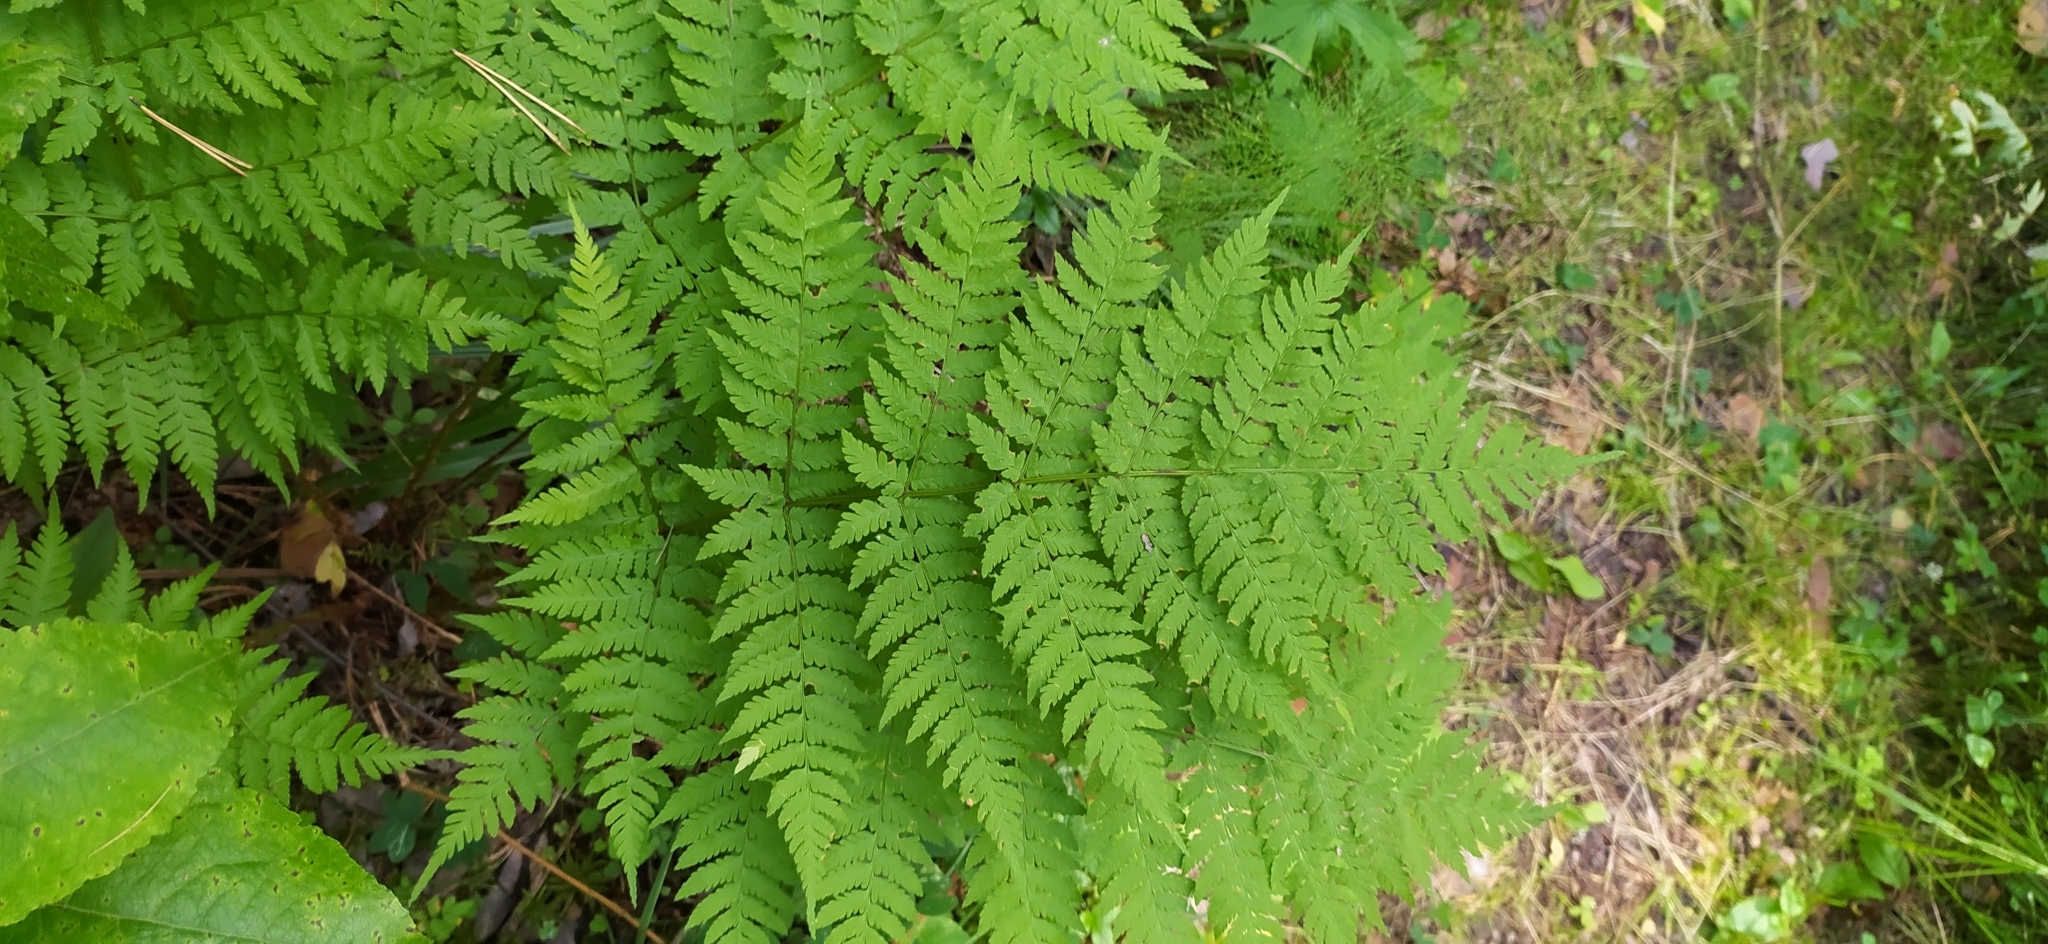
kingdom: Plantae
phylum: Tracheophyta
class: Polypodiopsida
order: Polypodiales
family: Dryopteridaceae
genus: Dryopteris
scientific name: Dryopteris expansa
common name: Northern buckler fern
